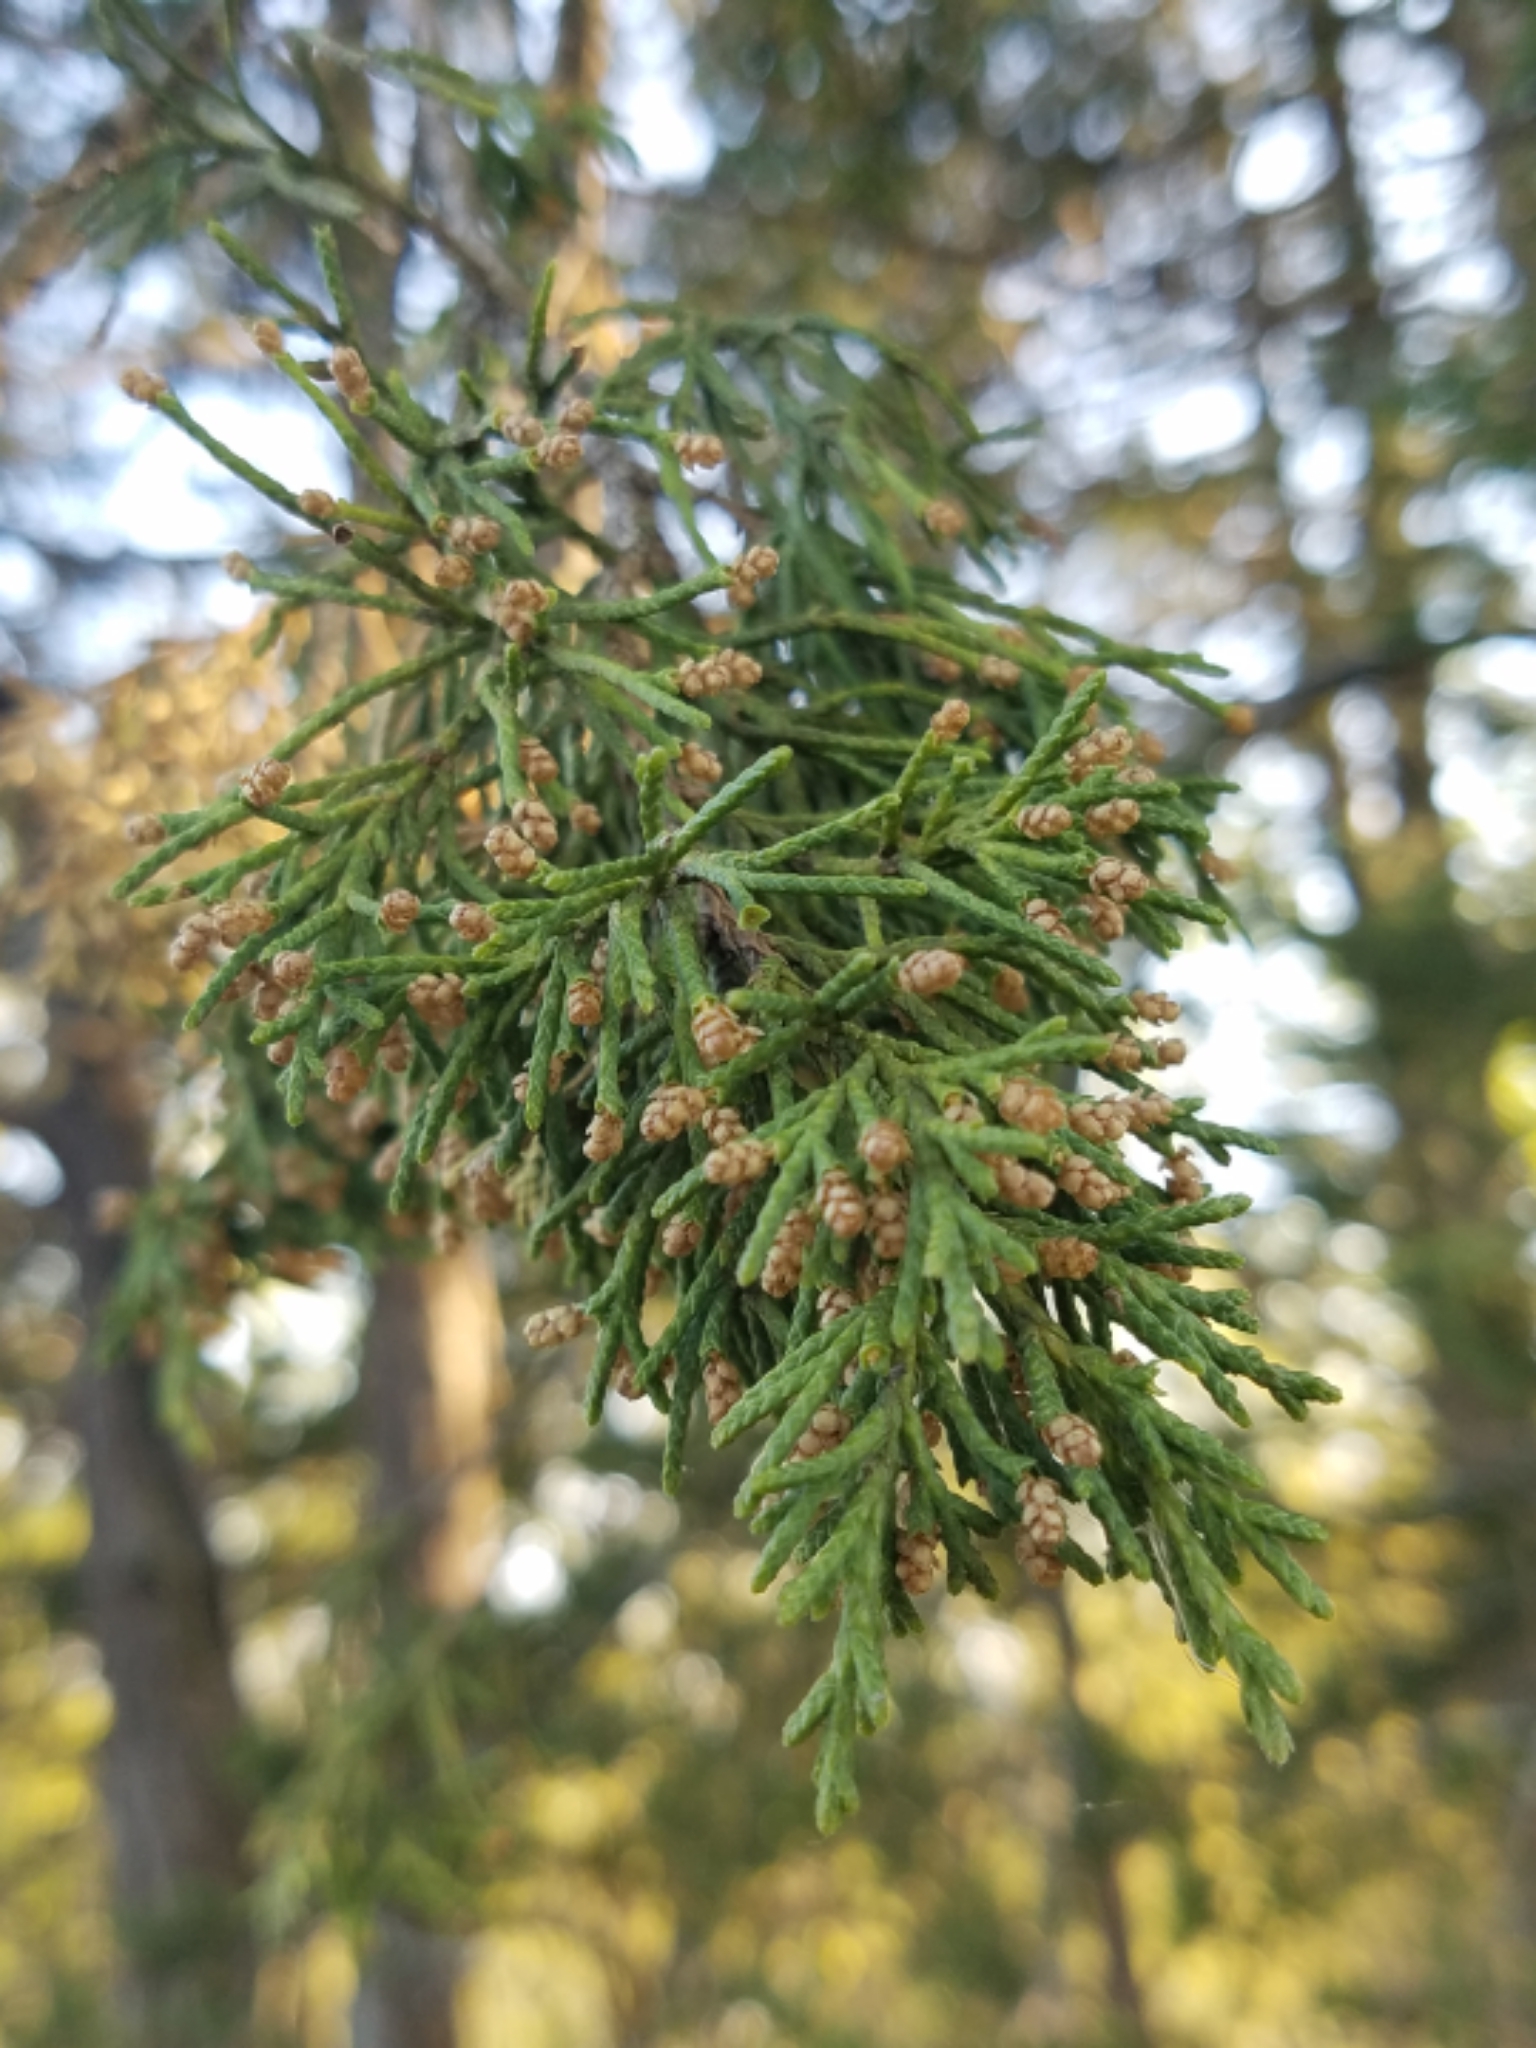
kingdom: Plantae
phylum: Tracheophyta
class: Pinopsida
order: Pinales
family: Cupressaceae
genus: Juniperus
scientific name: Juniperus virginiana
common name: Red juniper
